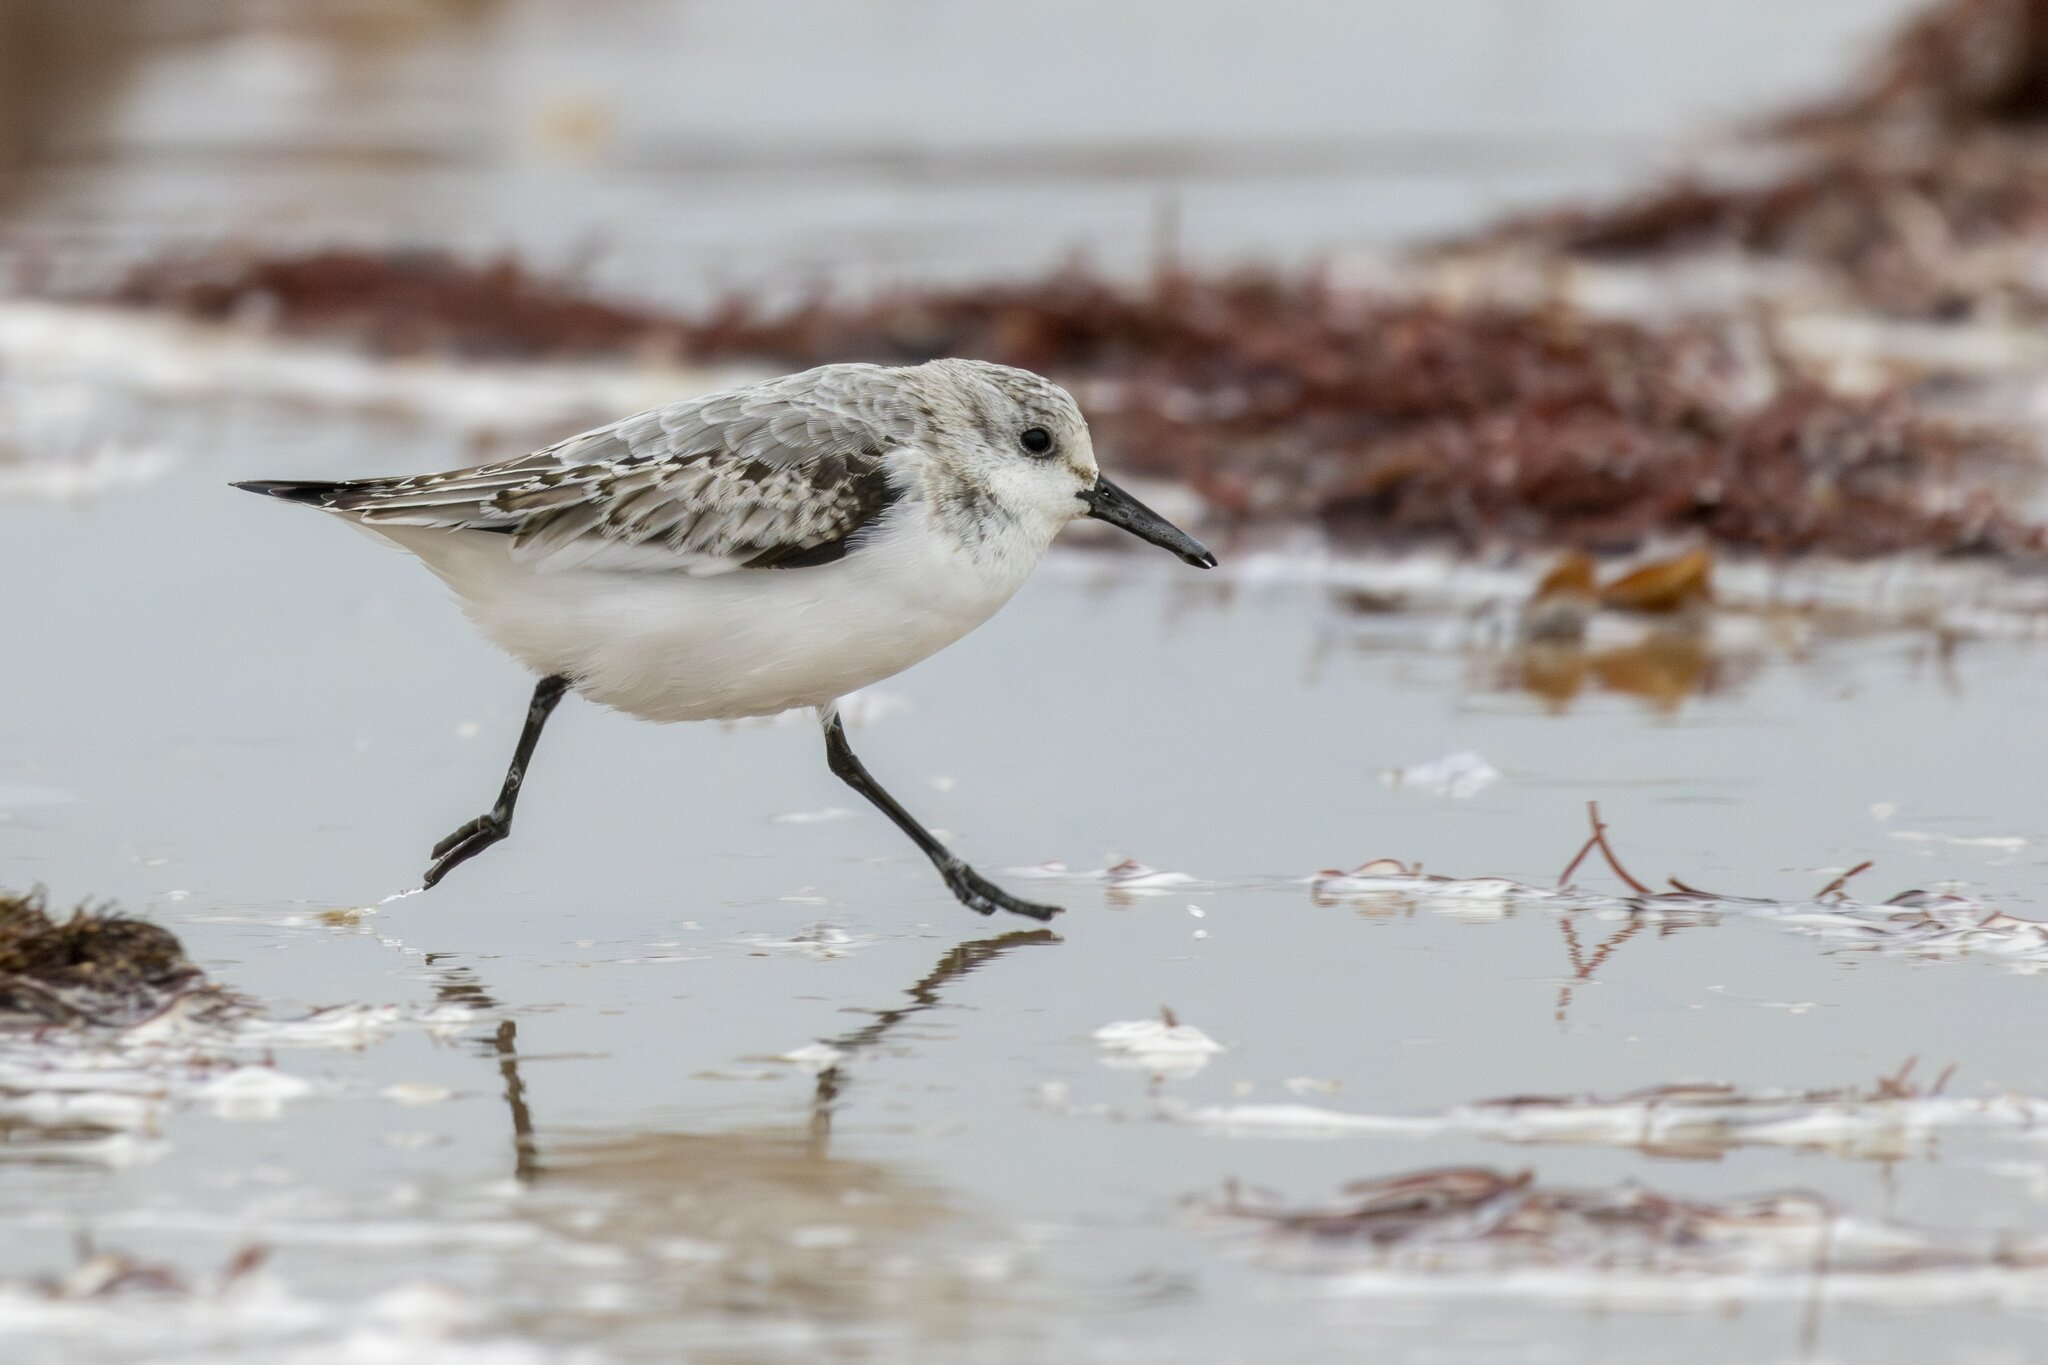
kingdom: Animalia
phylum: Chordata
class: Aves
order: Charadriiformes
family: Scolopacidae
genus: Calidris
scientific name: Calidris alba
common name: Sanderling
